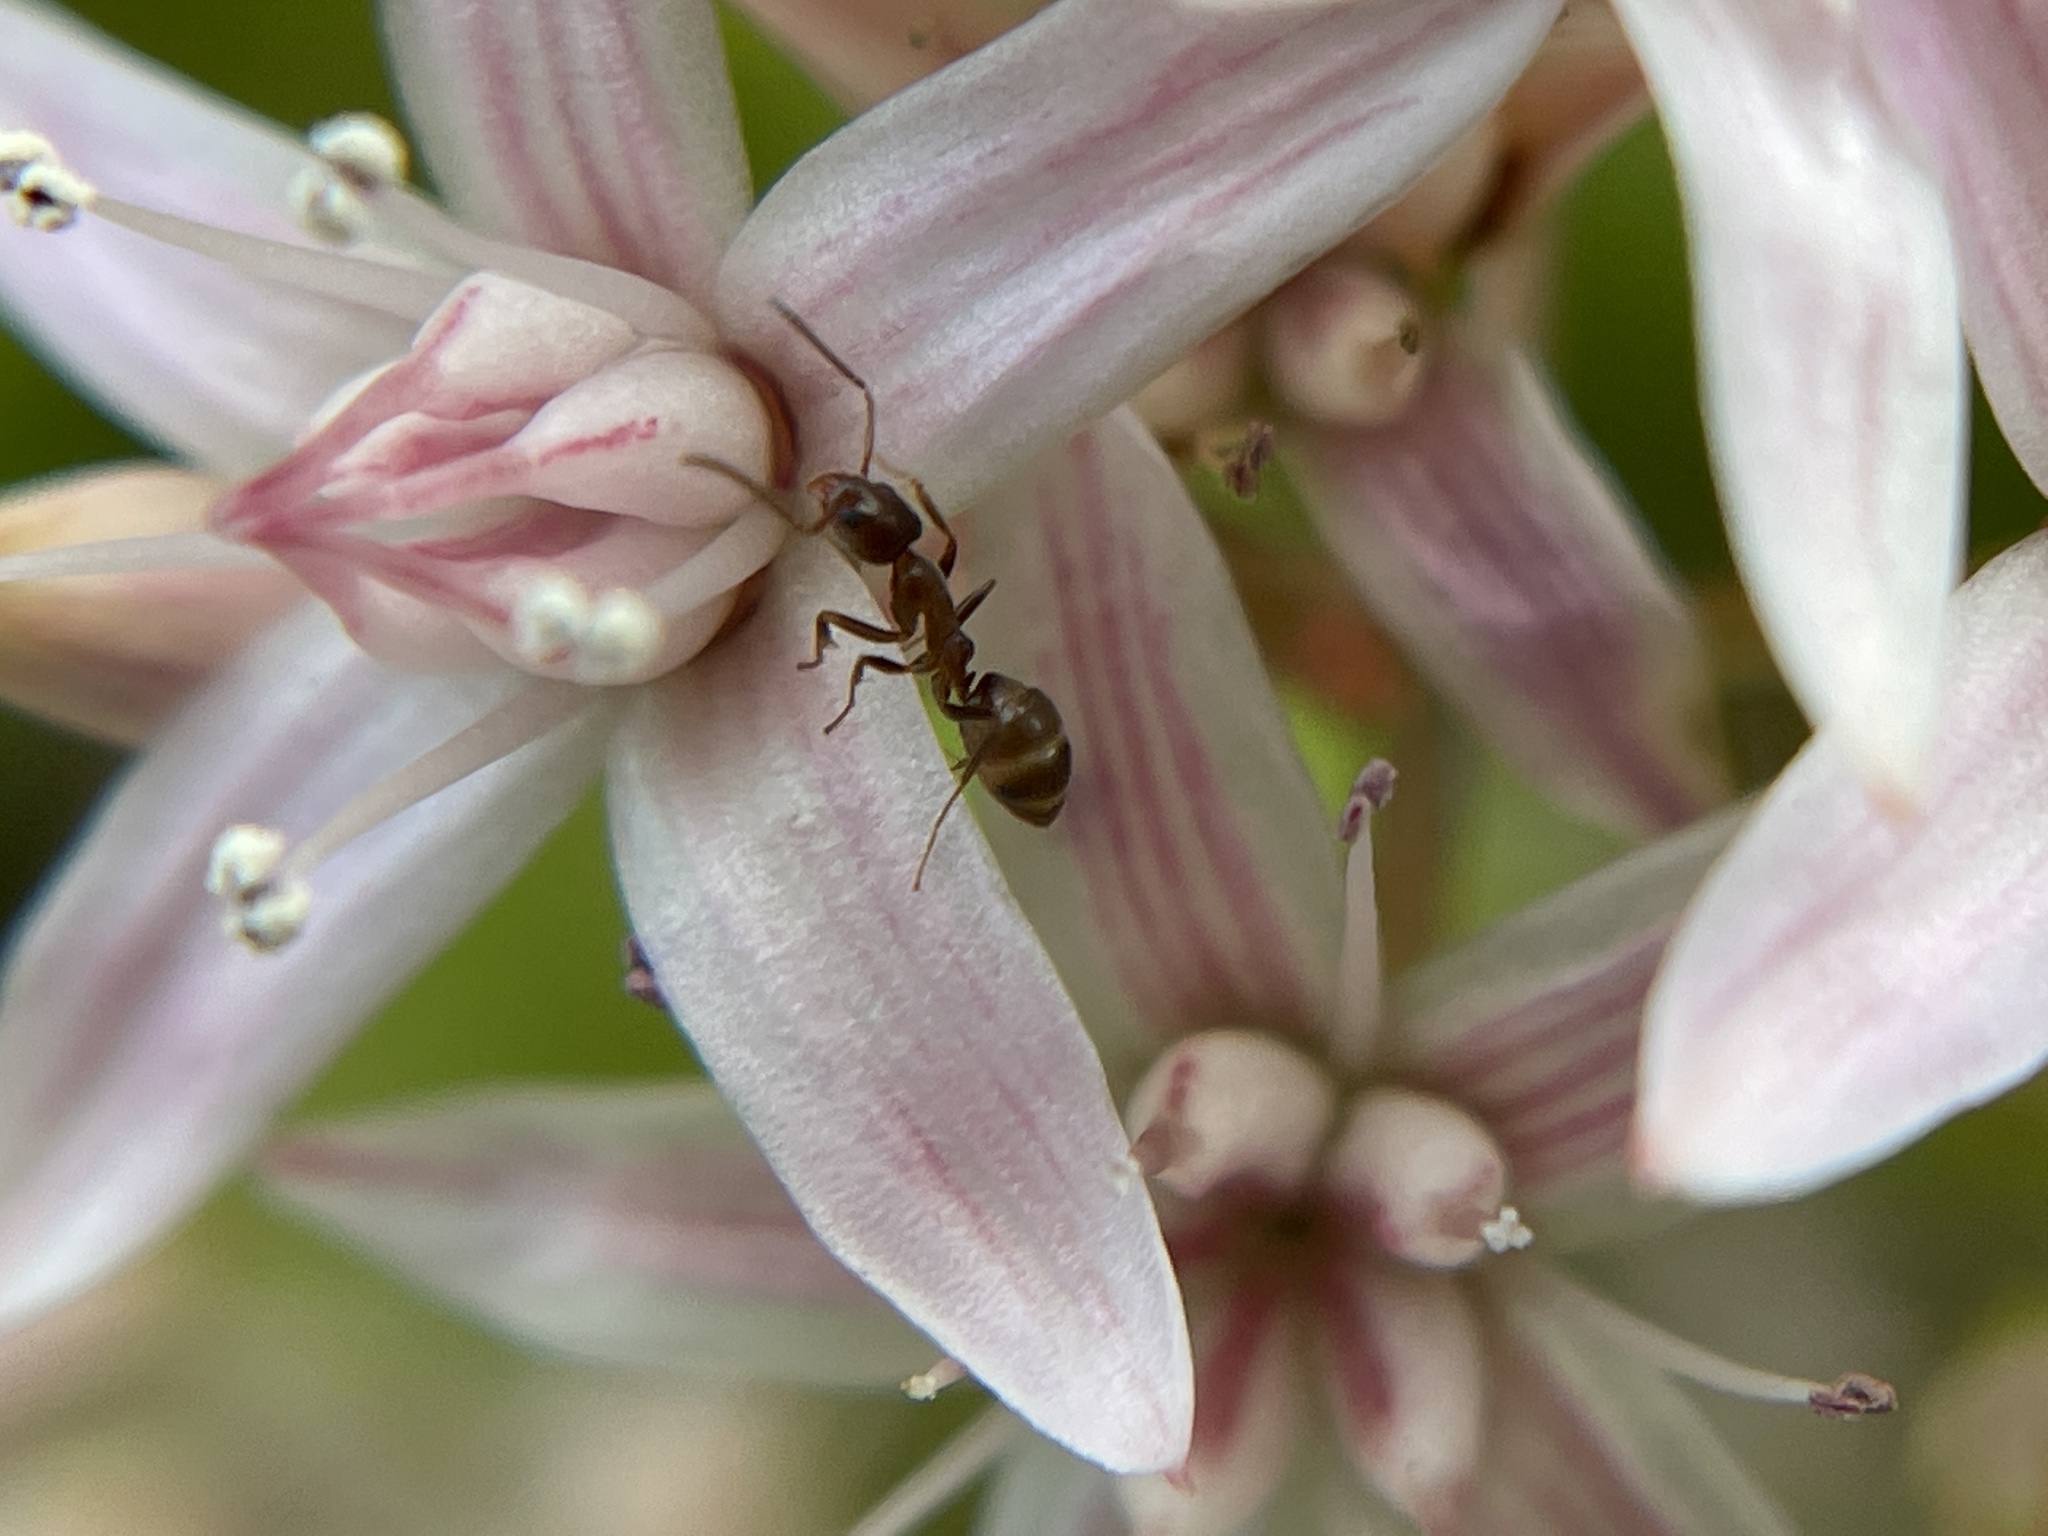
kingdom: Animalia
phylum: Arthropoda
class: Insecta
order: Hymenoptera
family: Formicidae
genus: Linepithema
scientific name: Linepithema humile
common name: Argentine ant
